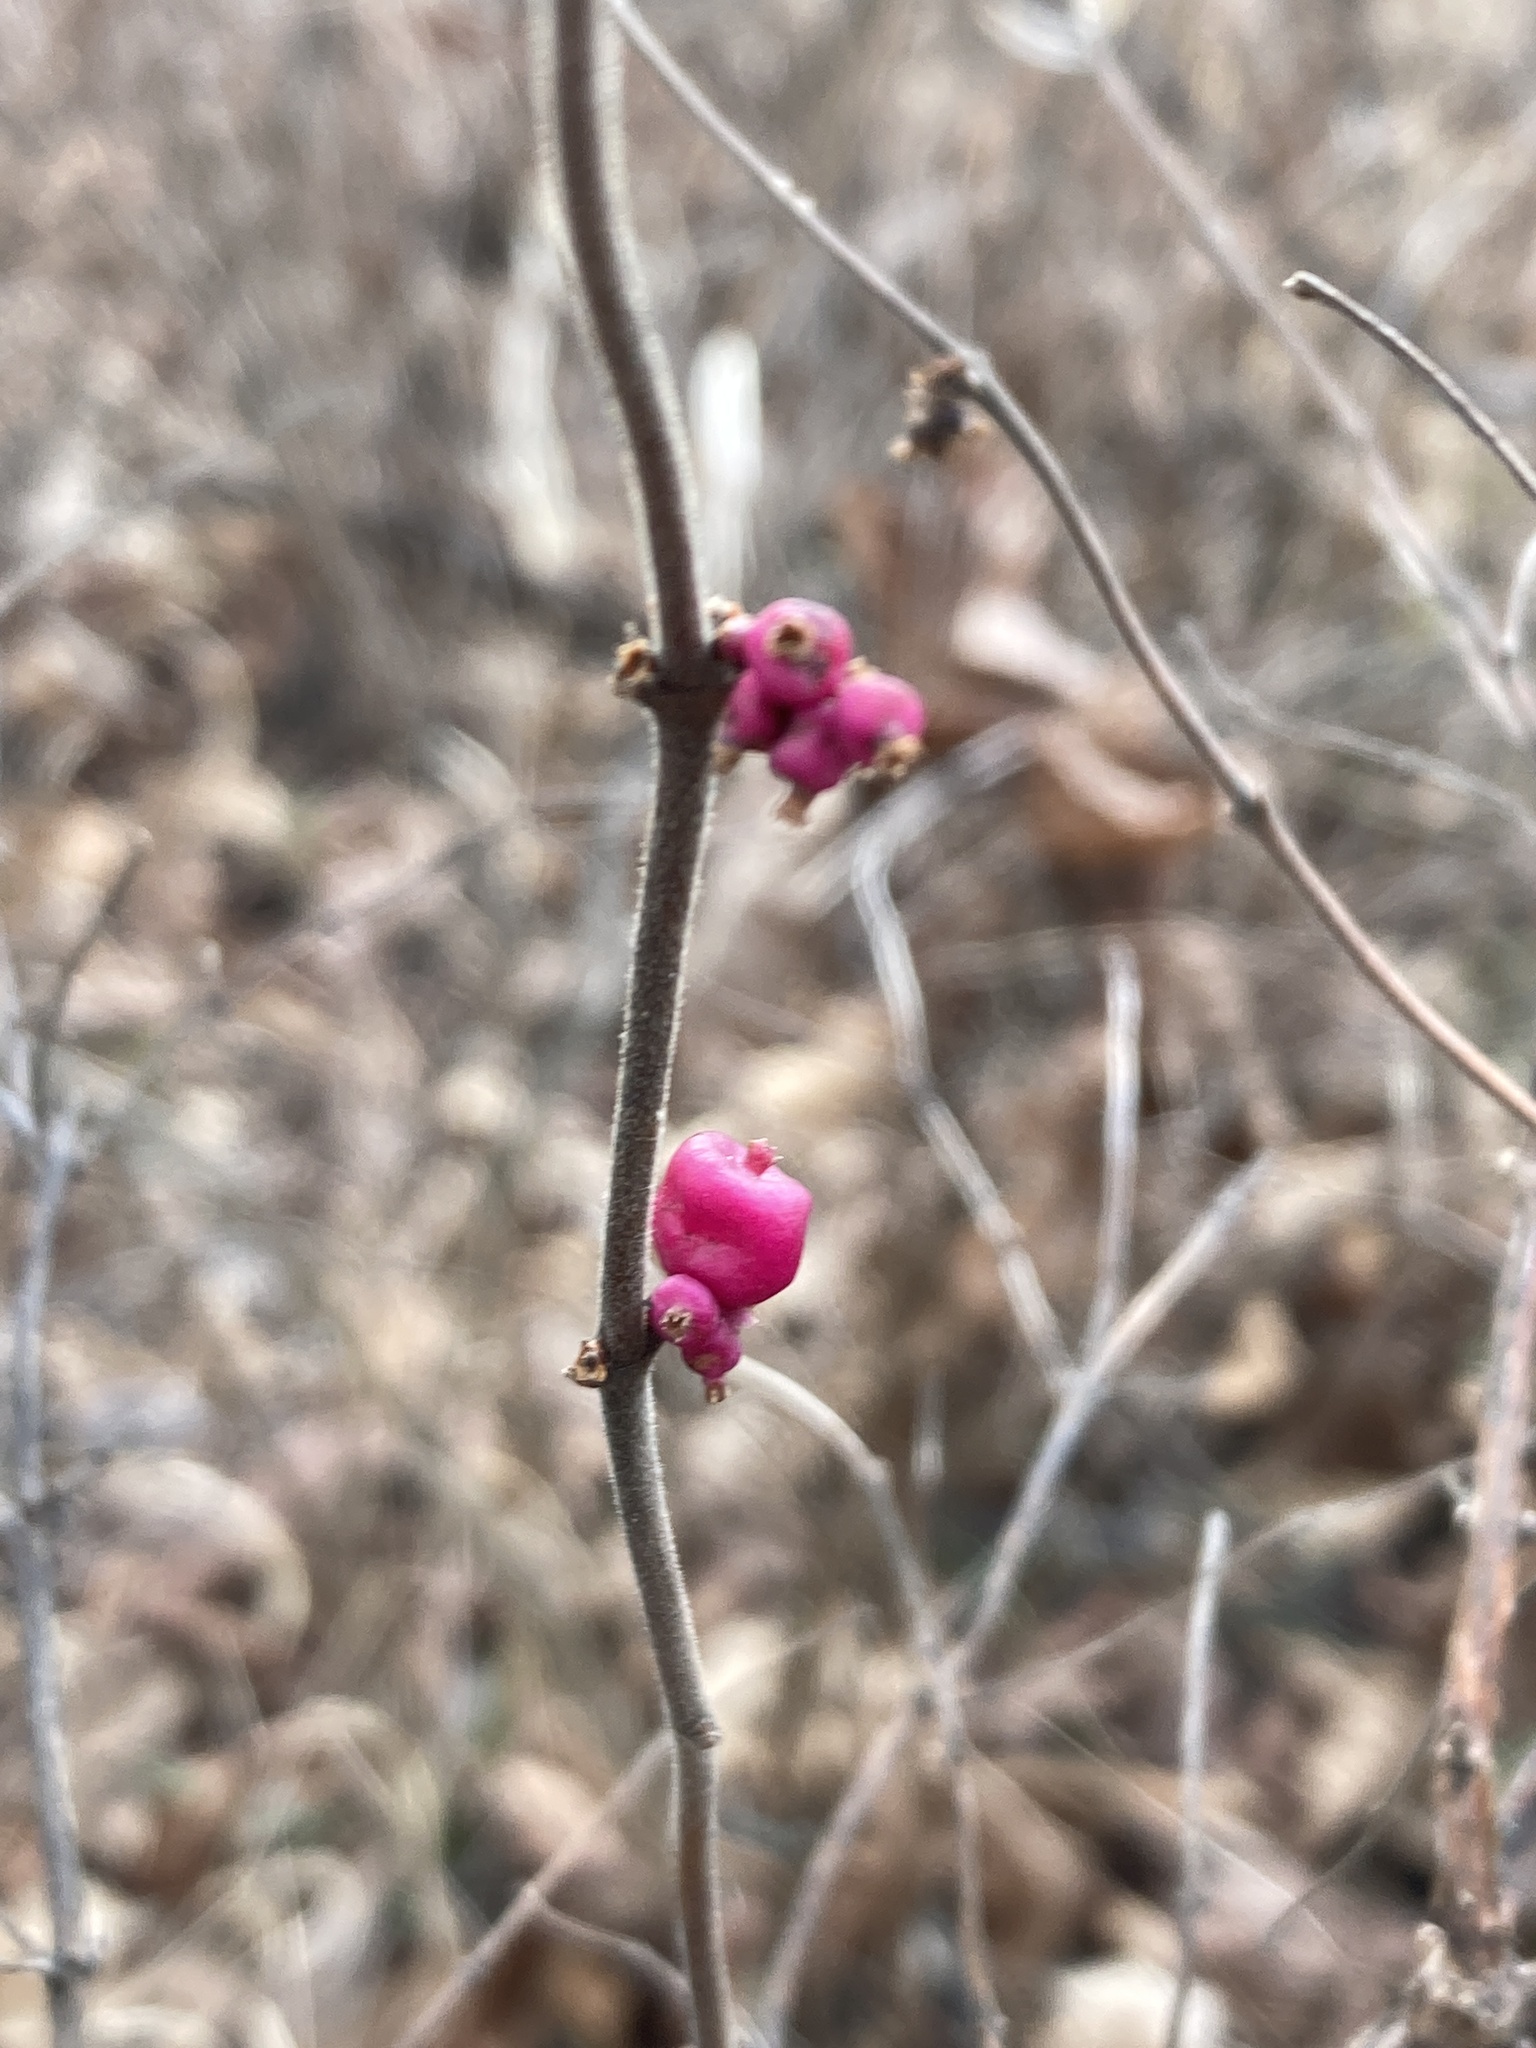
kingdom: Plantae
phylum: Tracheophyta
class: Magnoliopsida
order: Dipsacales
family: Caprifoliaceae
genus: Symphoricarpos
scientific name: Symphoricarpos orbiculatus
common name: Coralberry
